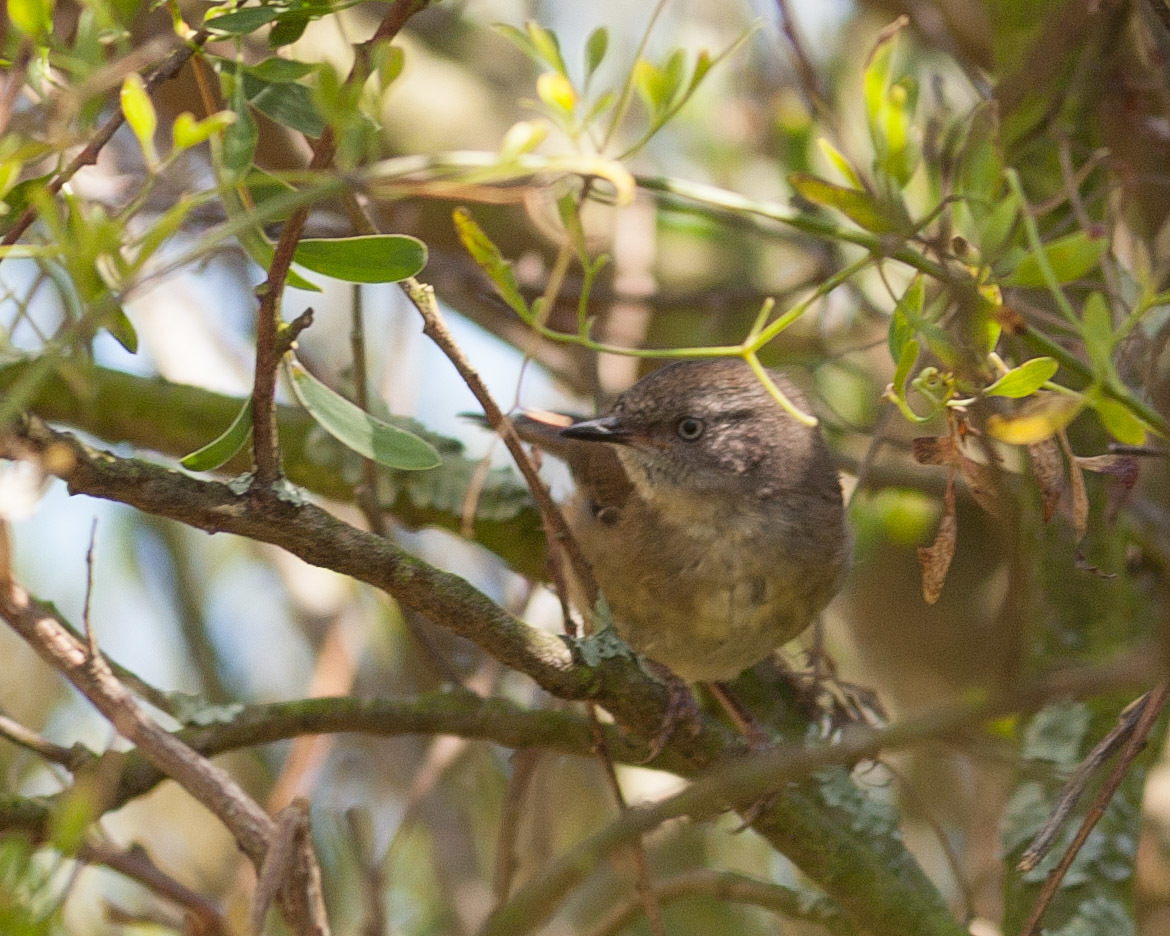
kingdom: Animalia
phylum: Chordata
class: Aves
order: Passeriformes
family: Acanthizidae
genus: Sericornis
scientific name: Sericornis frontalis
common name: White-browed scrubwren
